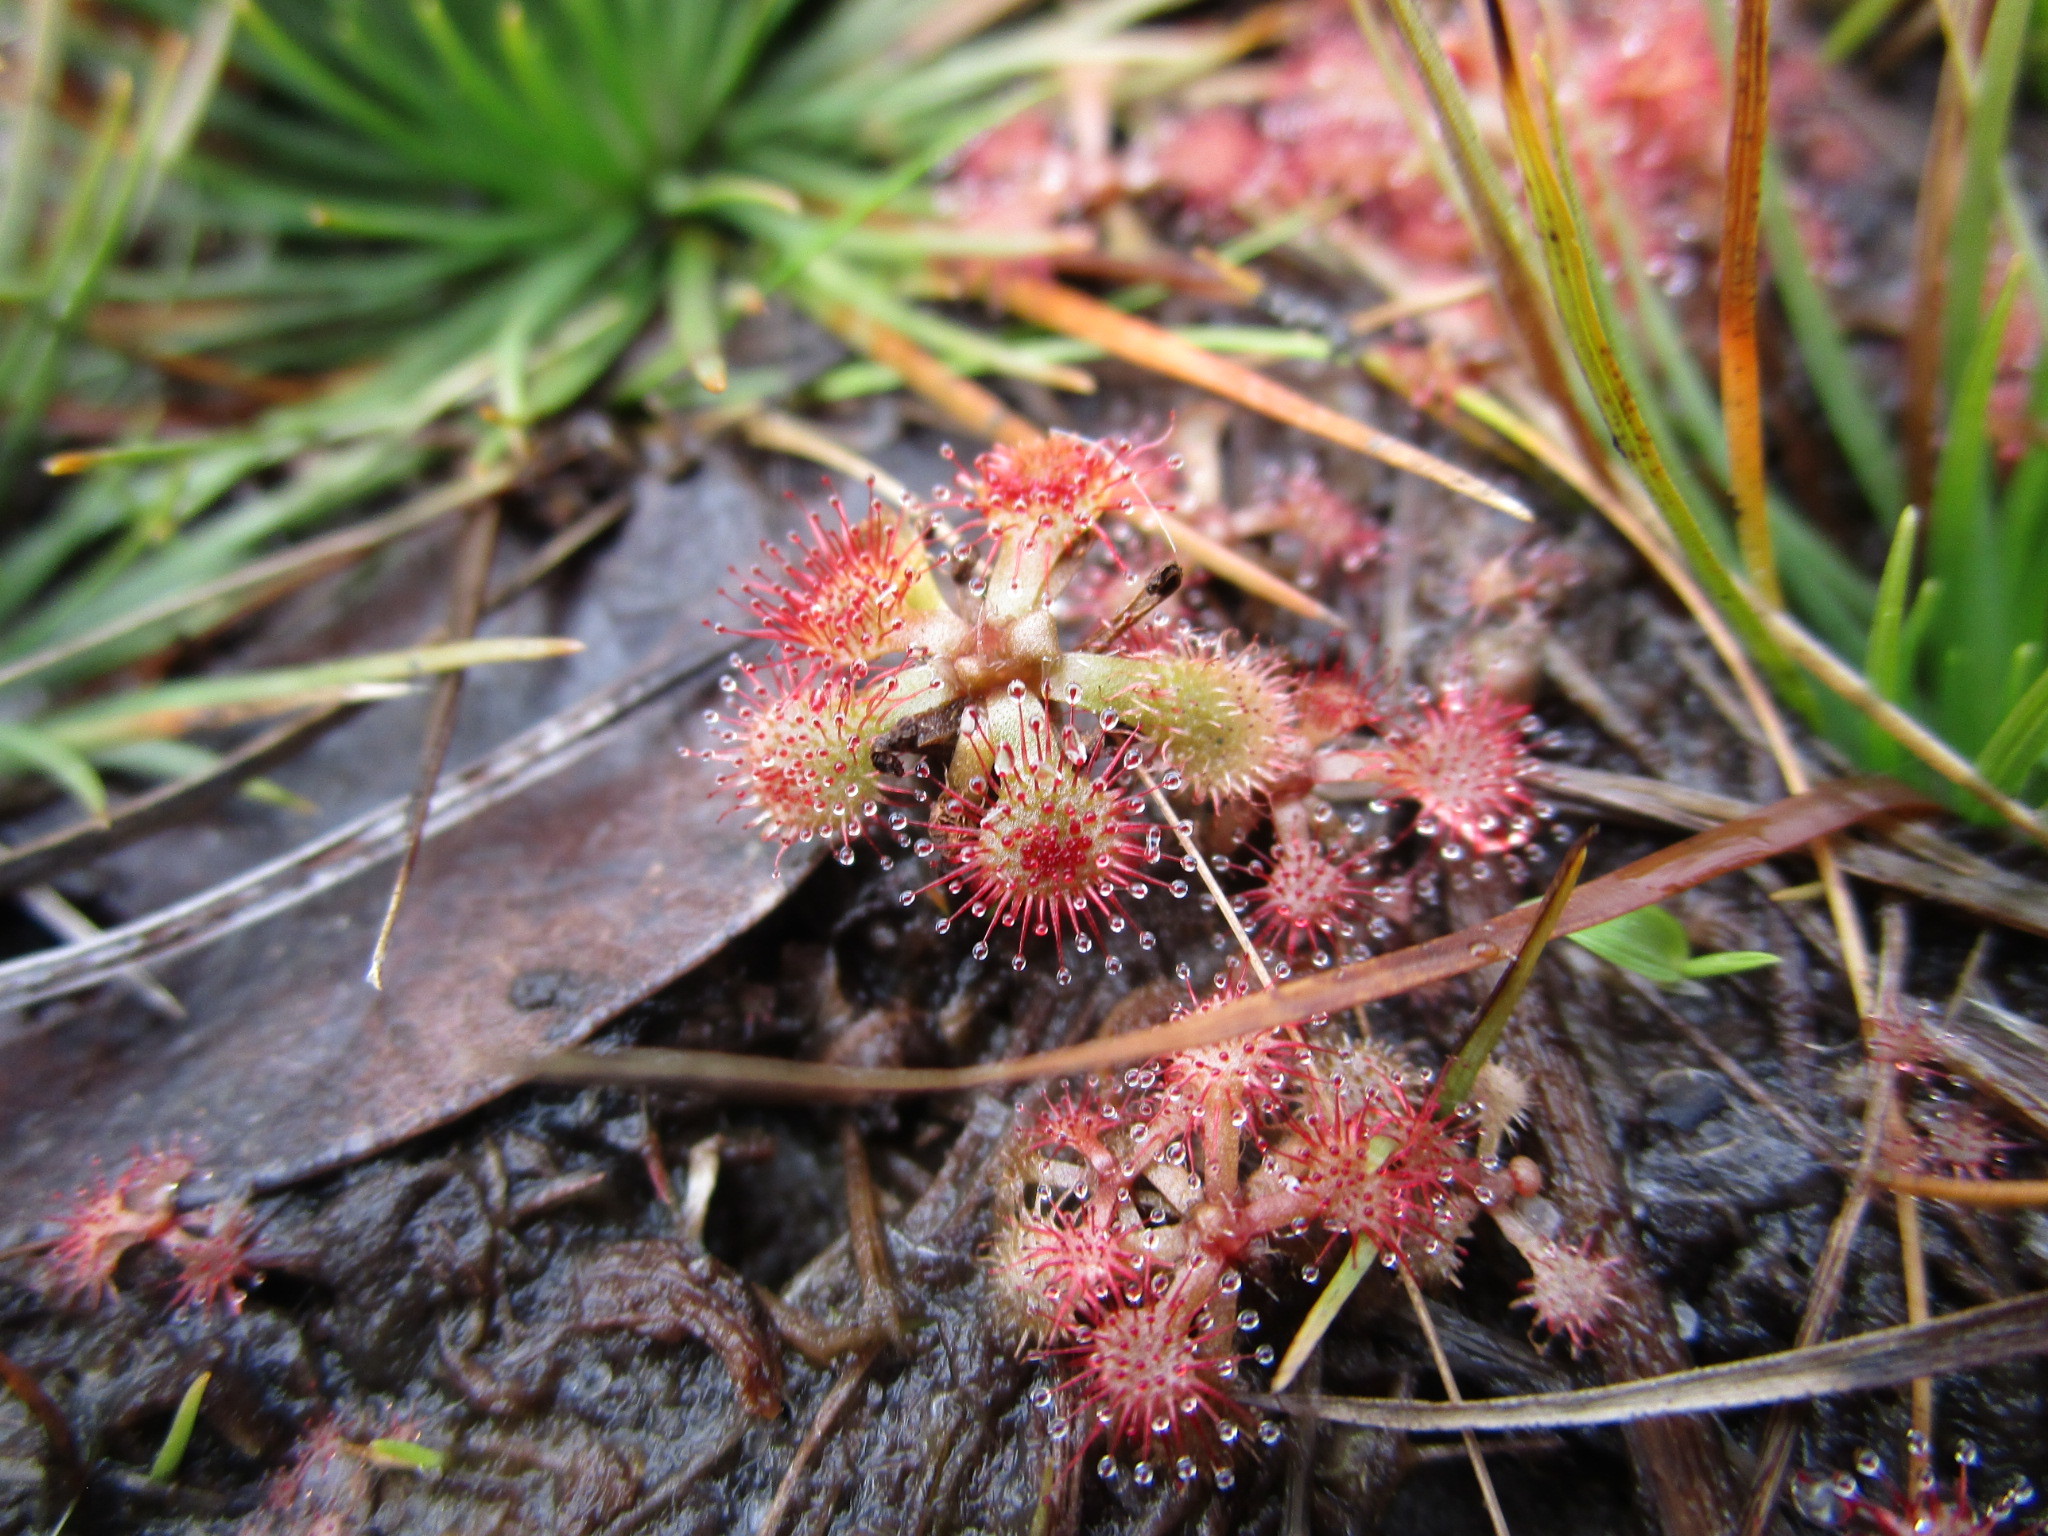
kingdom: Plantae
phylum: Tracheophyta
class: Magnoliopsida
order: Caryophyllales
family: Droseraceae
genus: Drosera
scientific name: Drosera capillaris
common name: Pink sundew
